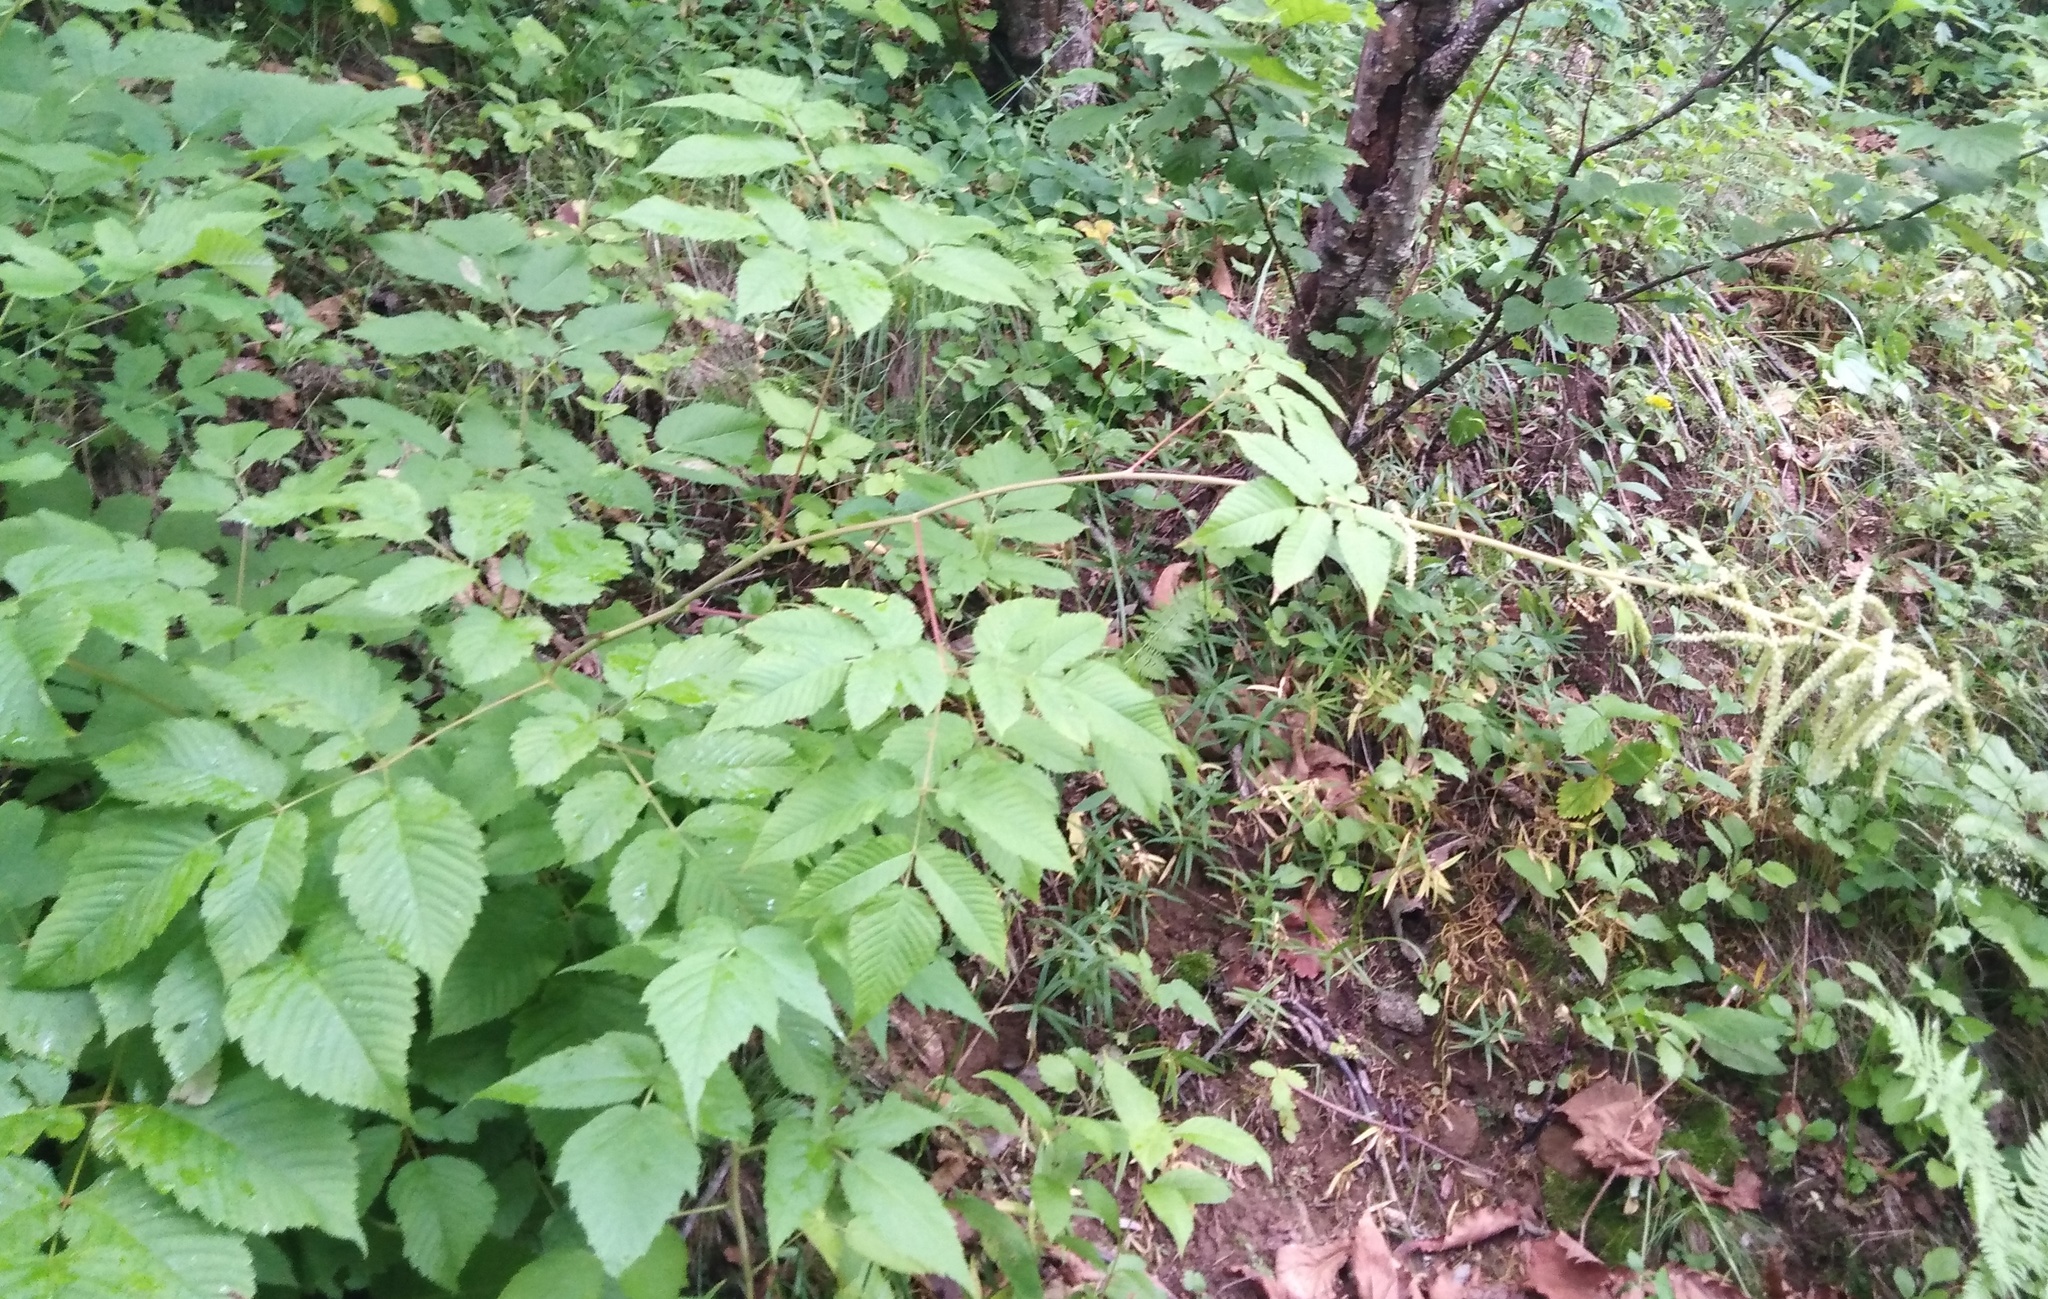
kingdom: Plantae
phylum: Tracheophyta
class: Magnoliopsida
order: Rosales
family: Rosaceae
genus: Aruncus
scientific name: Aruncus dioicus
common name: Buck's-beard
